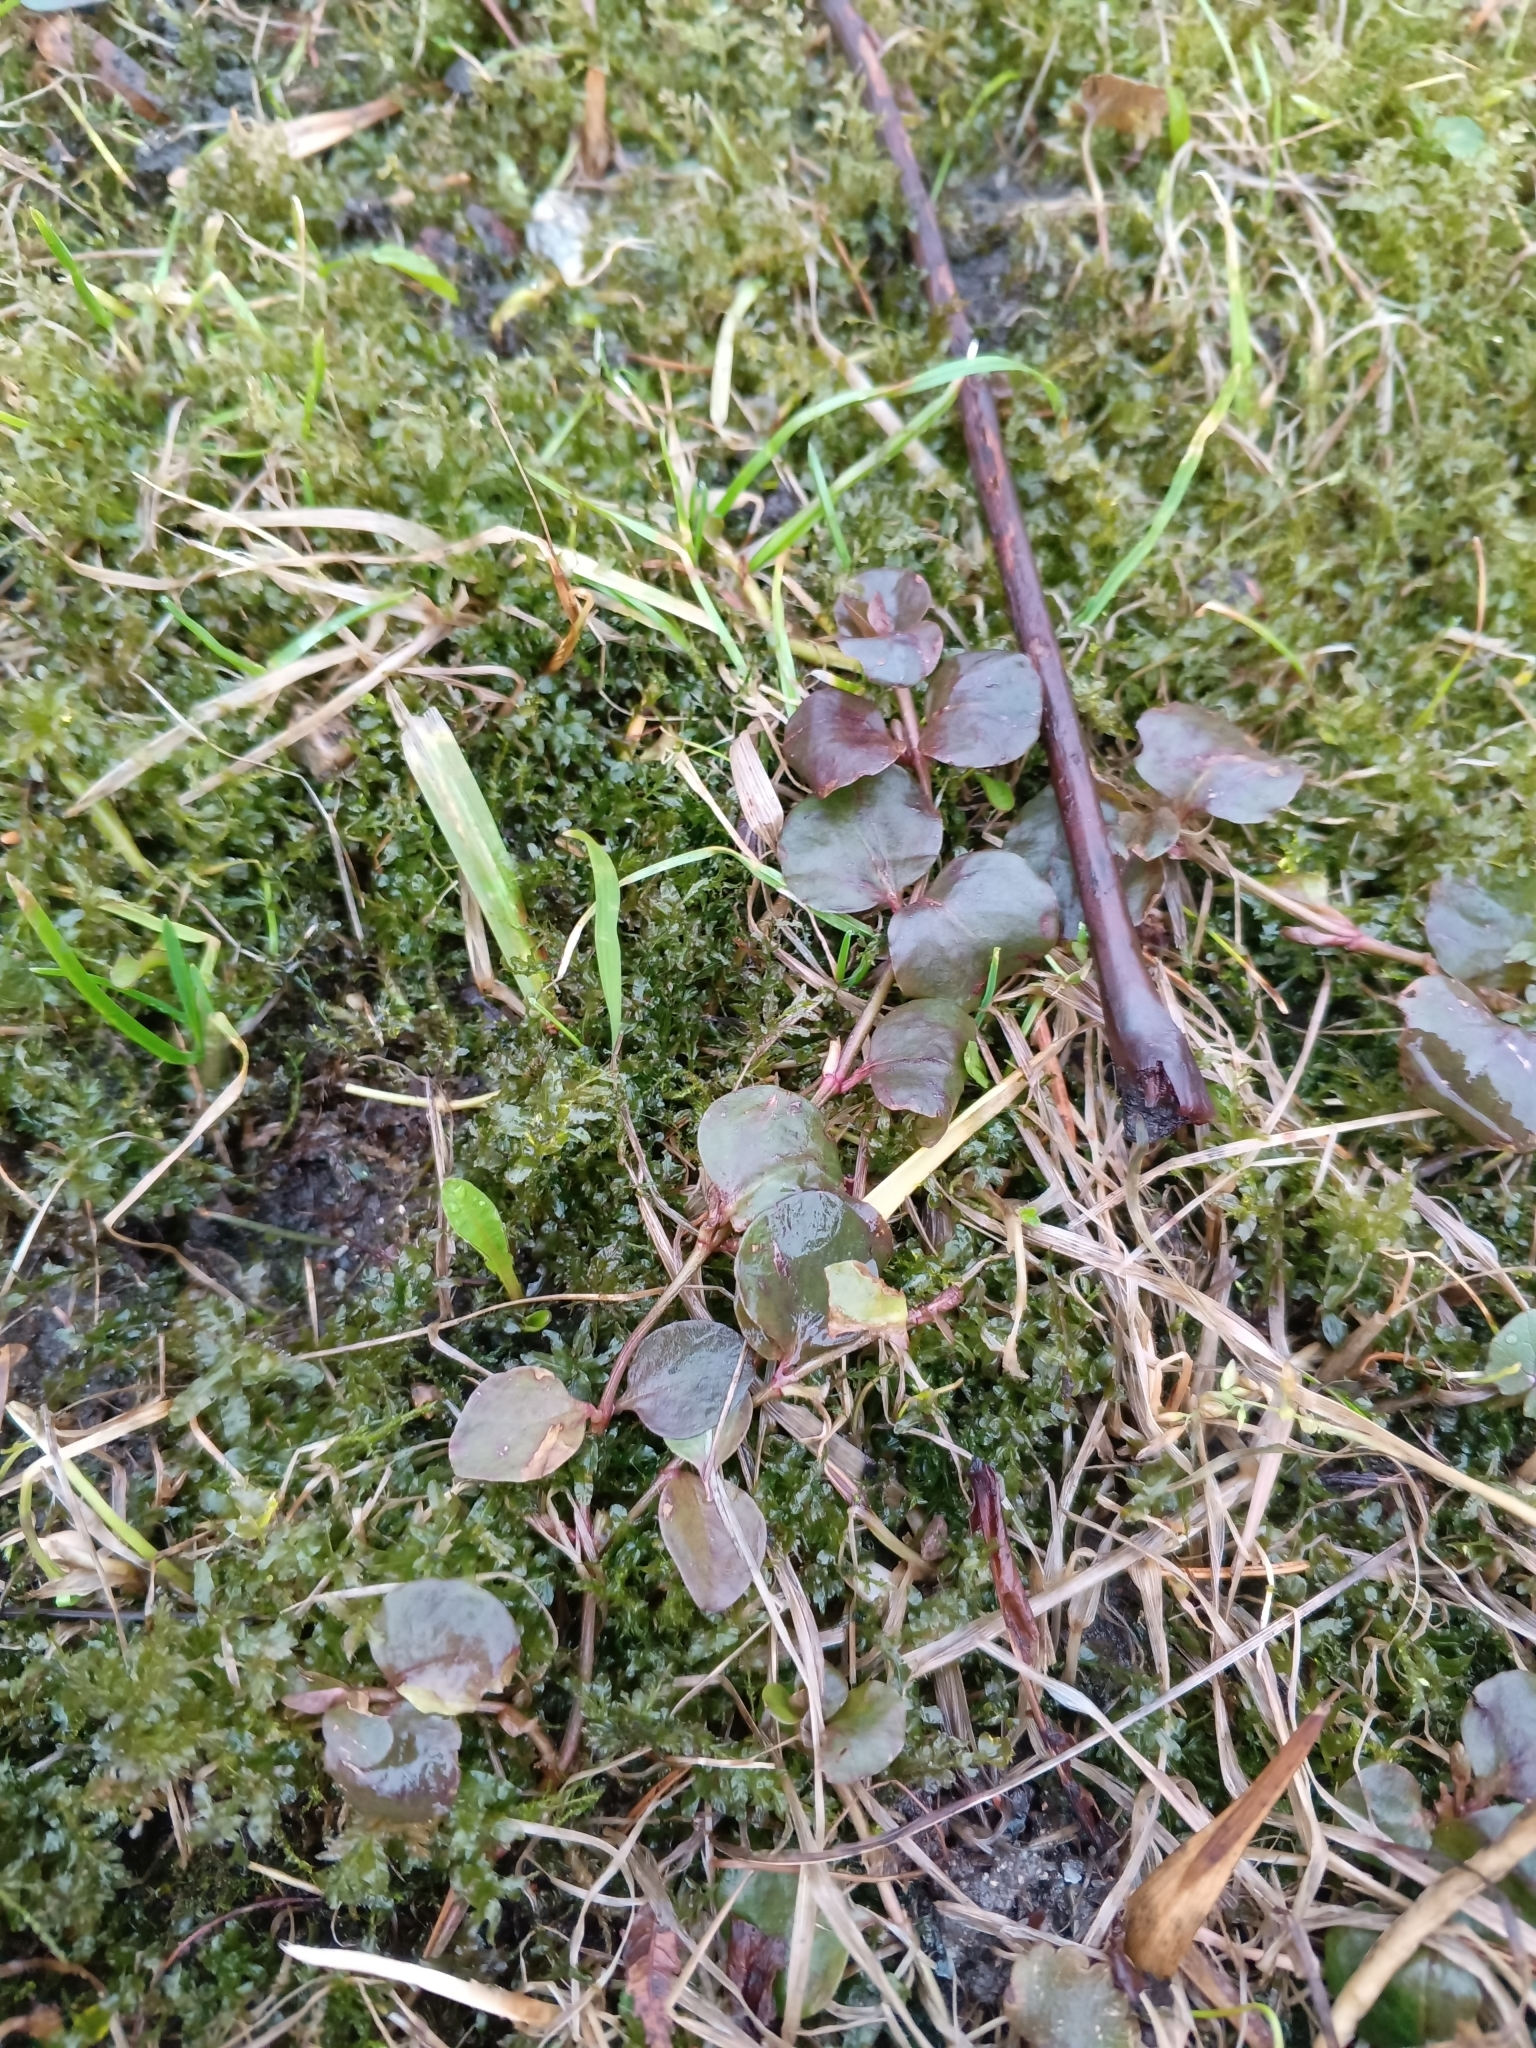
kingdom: Plantae
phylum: Tracheophyta
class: Magnoliopsida
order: Ericales
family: Primulaceae
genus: Lysimachia
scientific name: Lysimachia nummularia
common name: Moneywort
